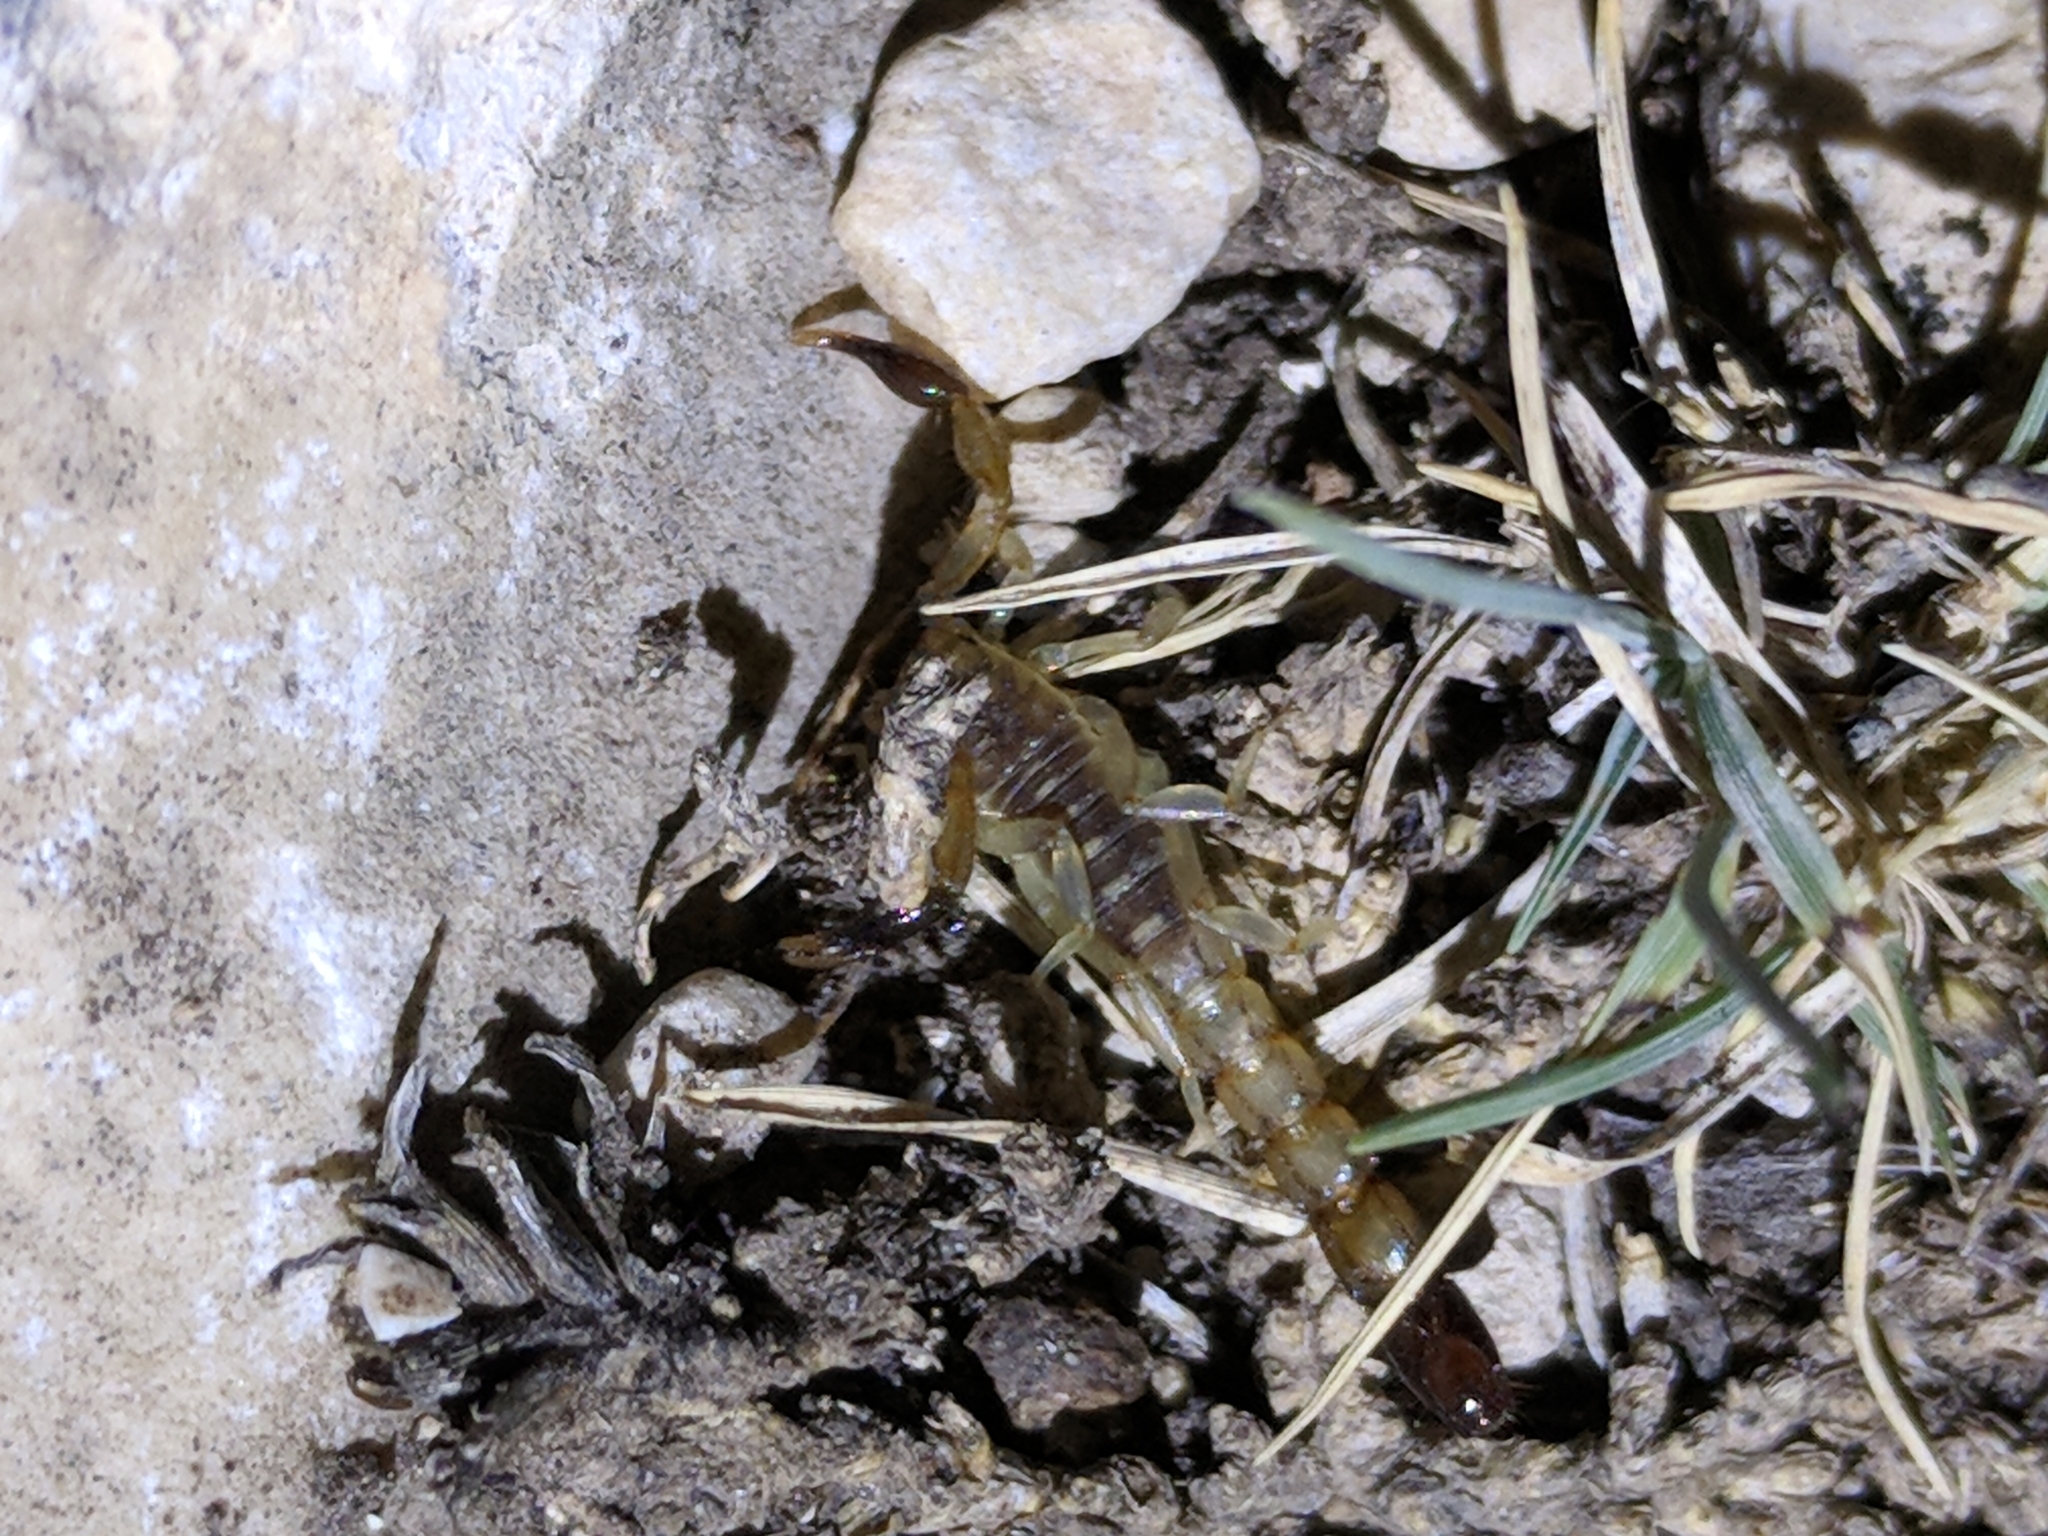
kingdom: Animalia
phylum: Arthropoda
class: Arachnida
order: Scorpiones
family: Vaejovidae
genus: Maaykuyak
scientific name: Maaykuyak waueri
